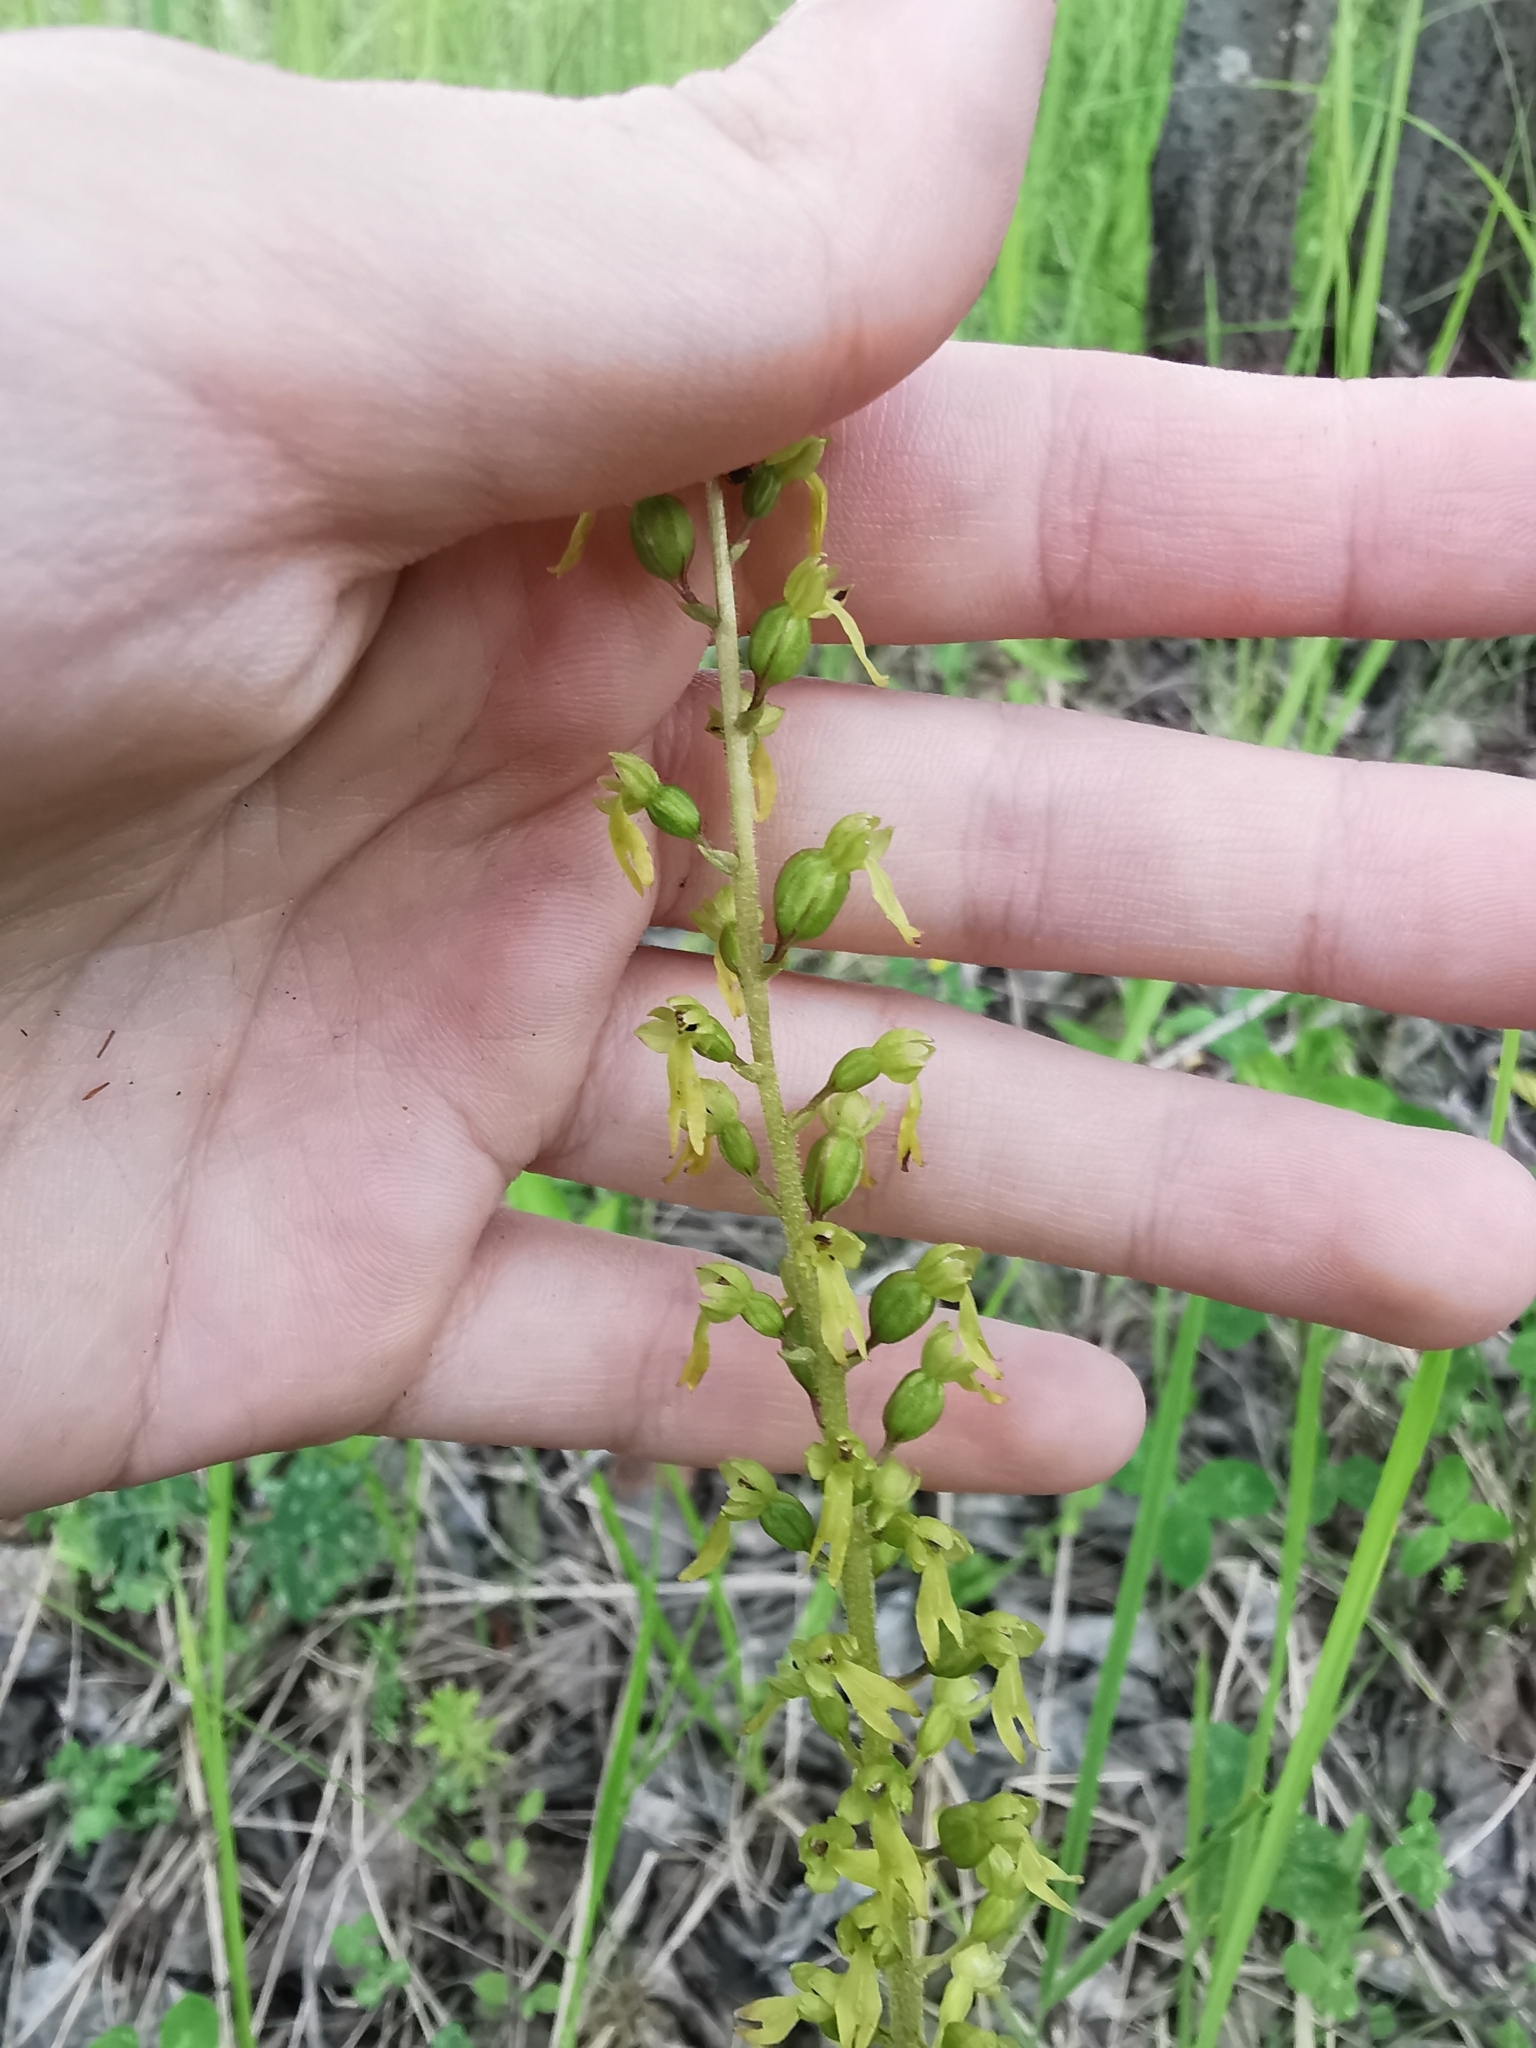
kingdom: Plantae
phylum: Tracheophyta
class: Liliopsida
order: Asparagales
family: Orchidaceae
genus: Neottia
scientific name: Neottia ovata
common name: Common twayblade
